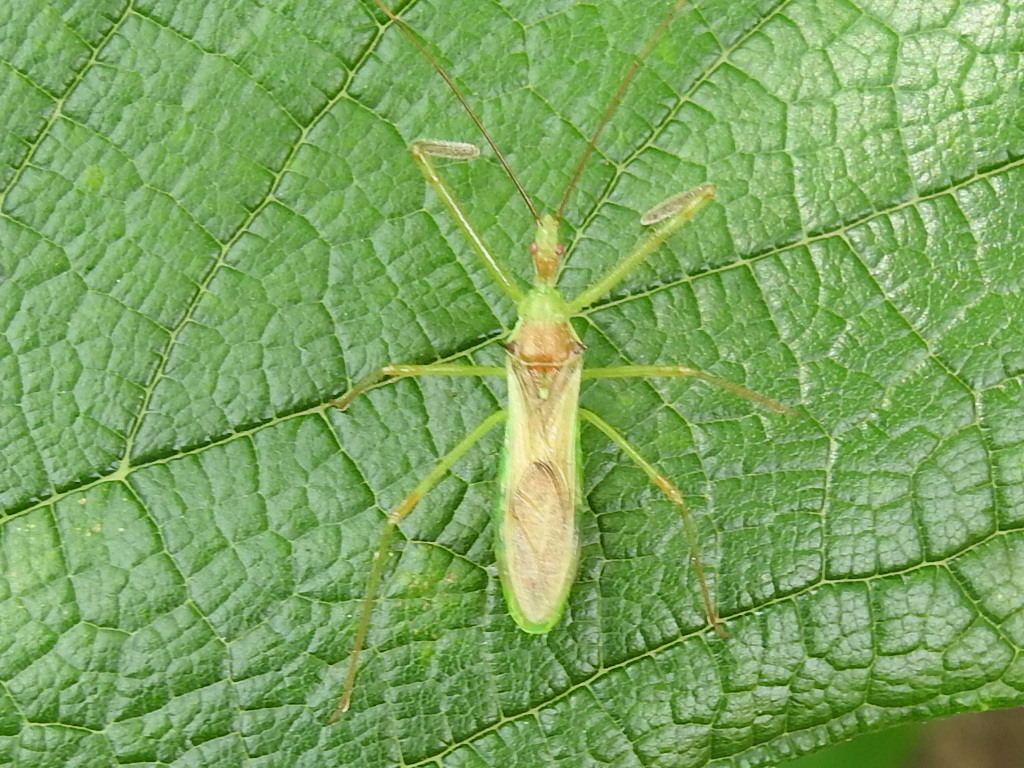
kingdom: Animalia
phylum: Arthropoda
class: Insecta
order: Hemiptera
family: Reduviidae
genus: Zelus
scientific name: Zelus luridus
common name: Pale green assassin bug
